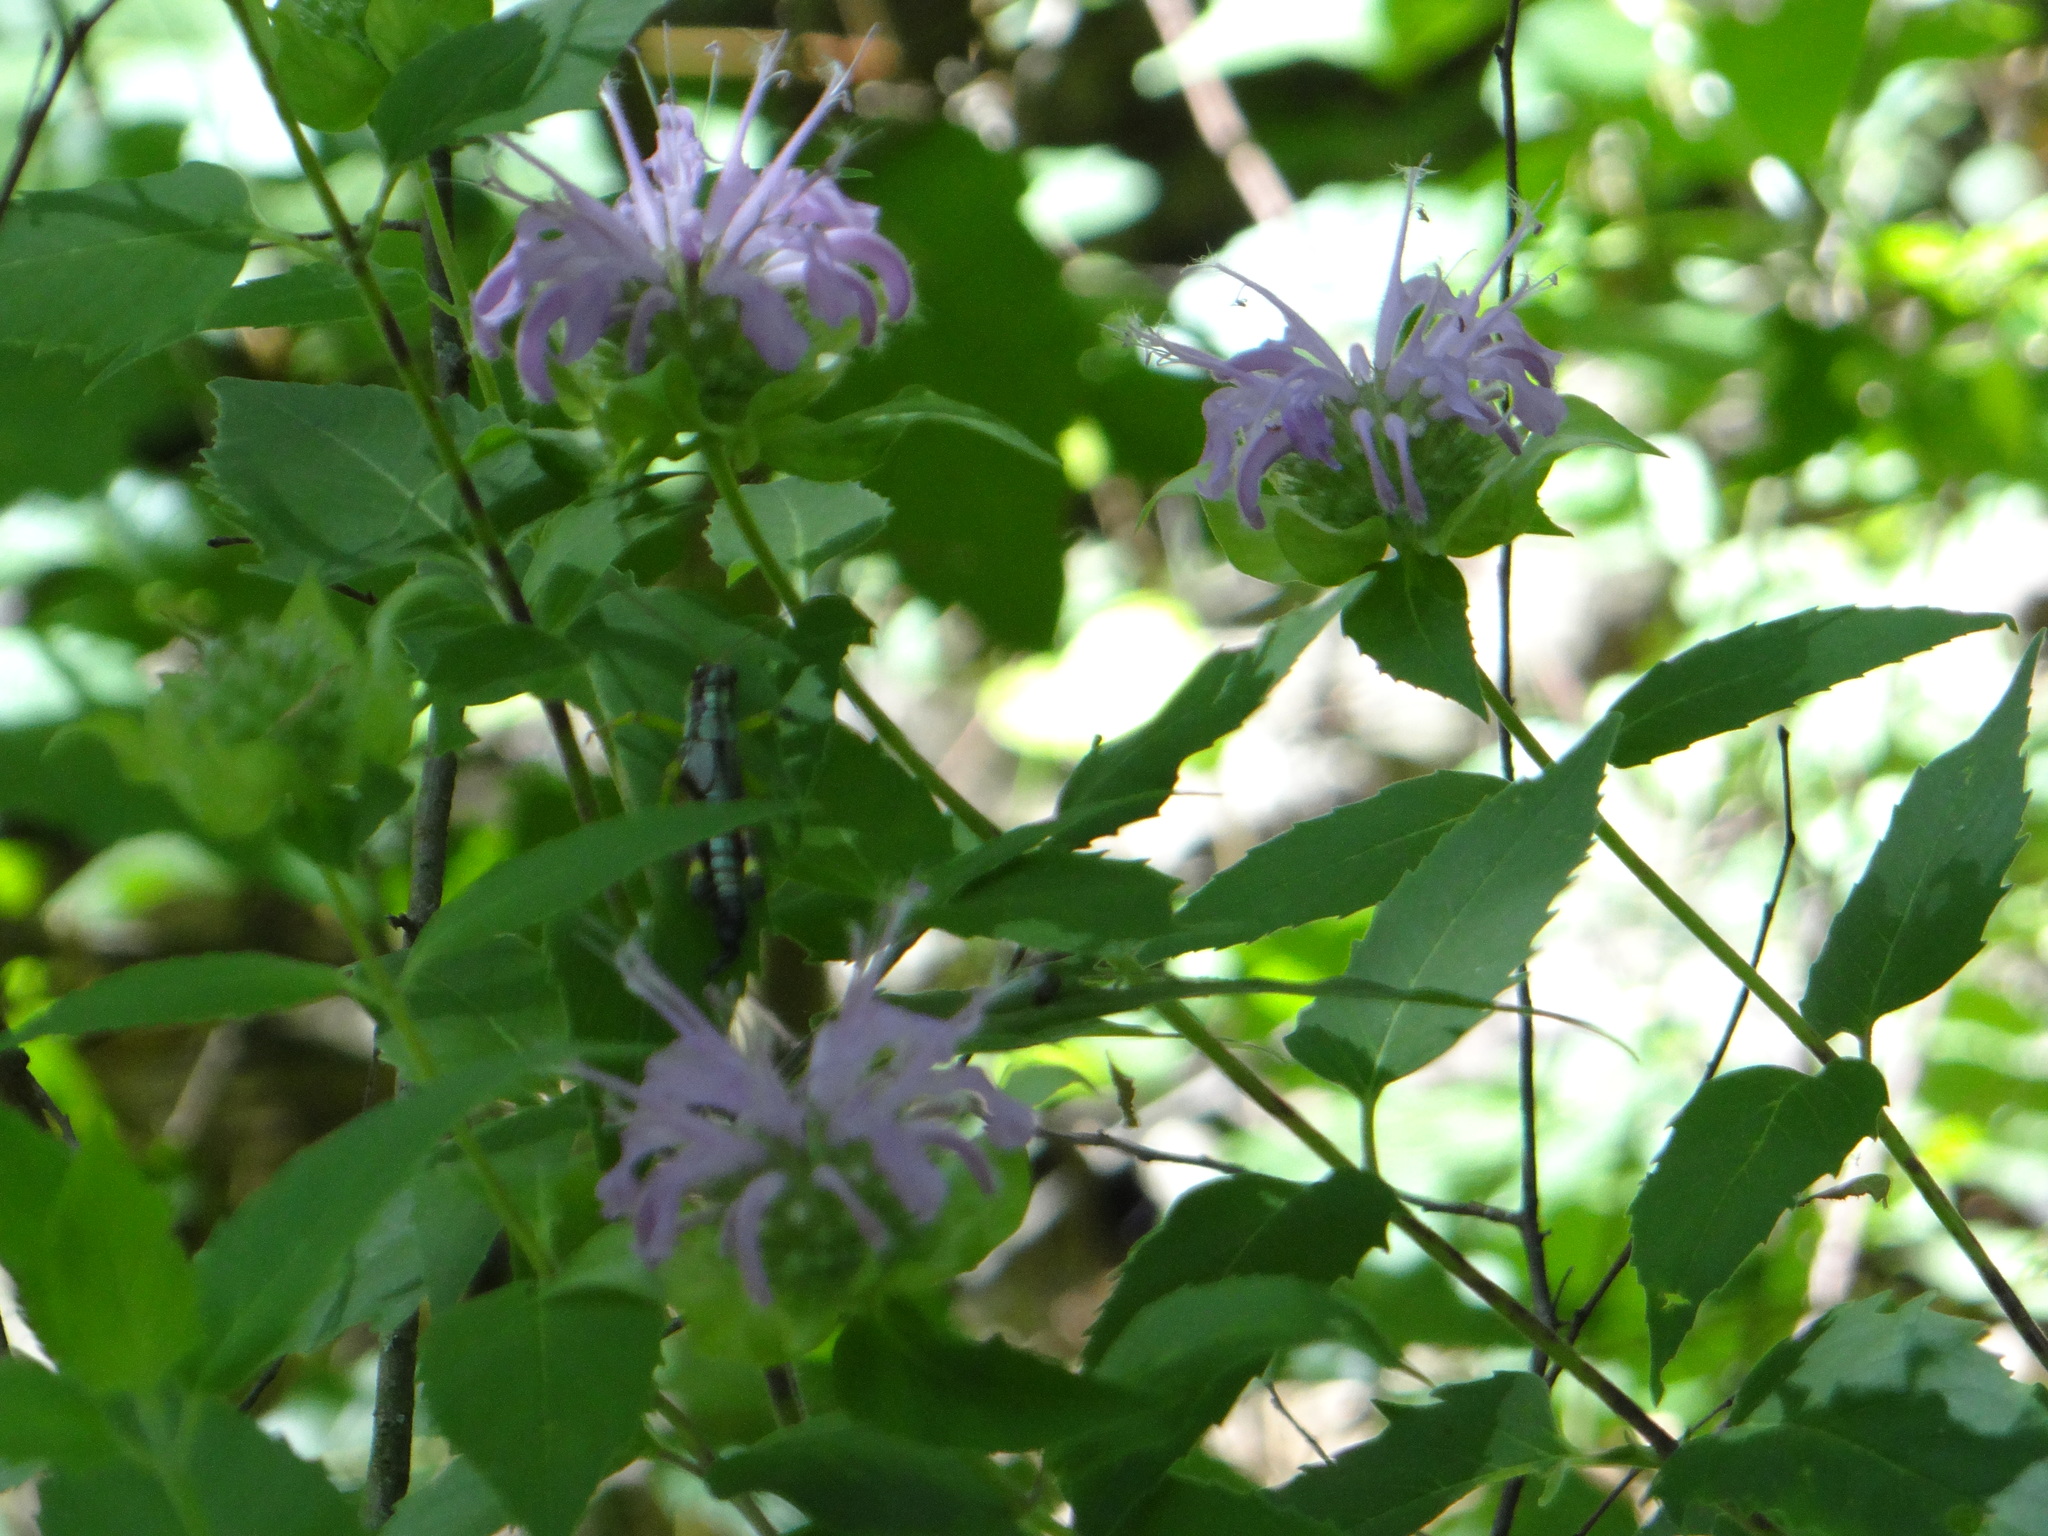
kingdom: Plantae
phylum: Tracheophyta
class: Magnoliopsida
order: Lamiales
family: Lamiaceae
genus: Monarda
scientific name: Monarda fistulosa
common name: Purple beebalm
